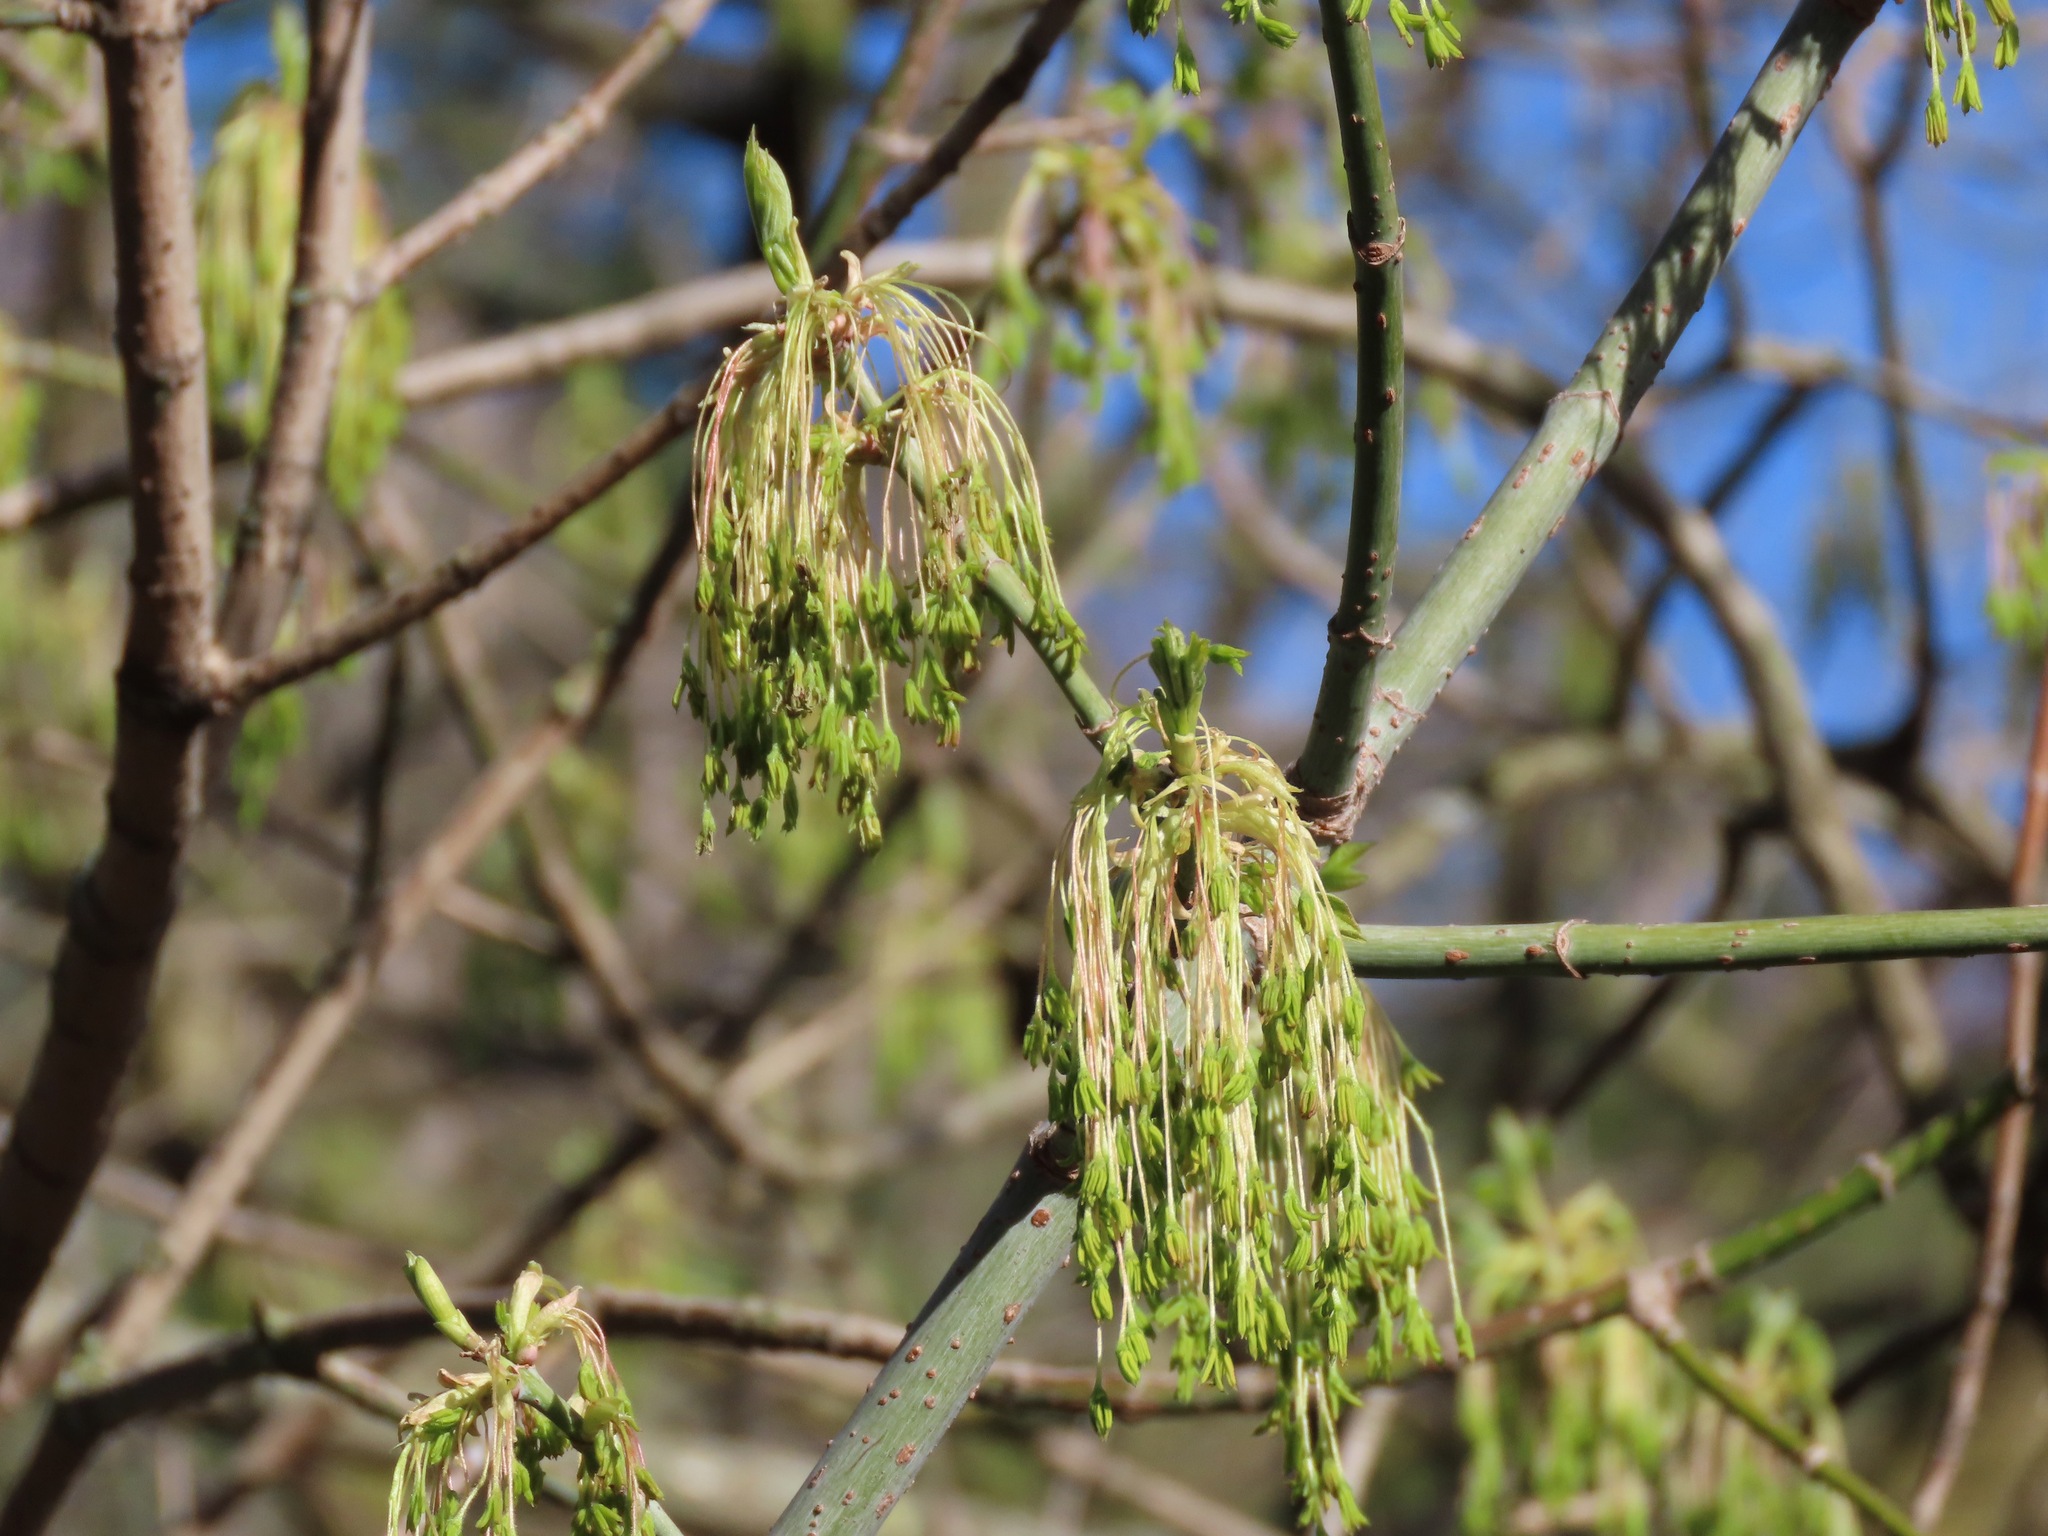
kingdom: Plantae
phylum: Tracheophyta
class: Magnoliopsida
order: Sapindales
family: Sapindaceae
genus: Acer
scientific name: Acer negundo
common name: Ashleaf maple
